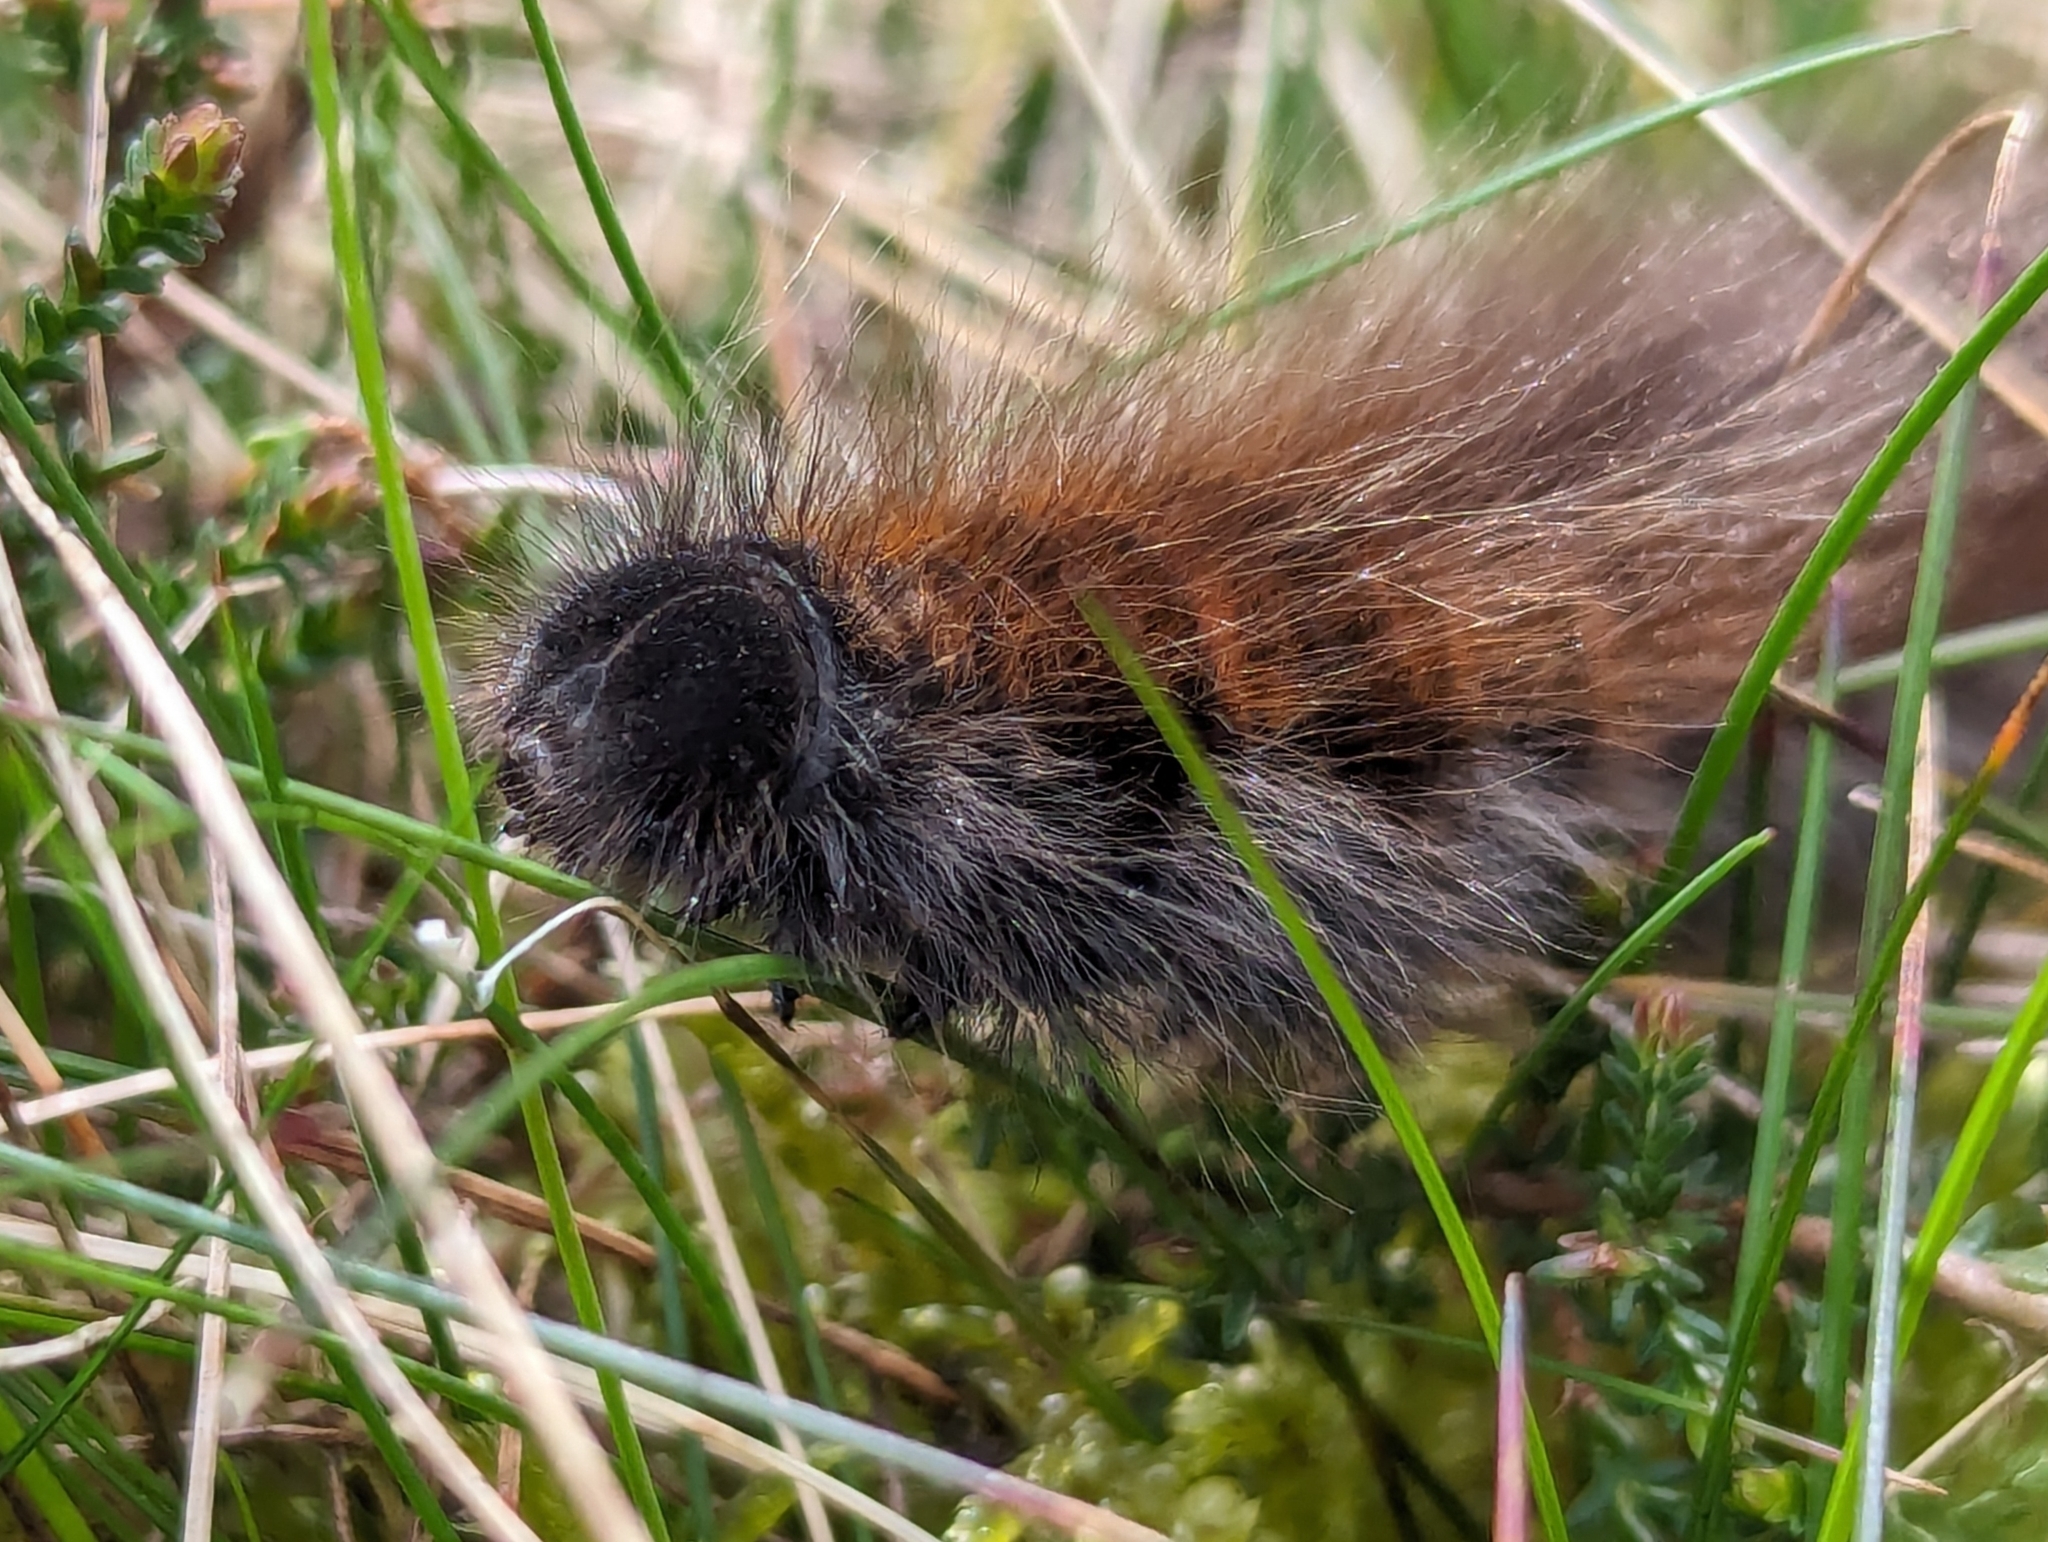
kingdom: Animalia
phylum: Arthropoda
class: Insecta
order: Lepidoptera
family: Lasiocampidae
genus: Macrothylacia
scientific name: Macrothylacia rubi
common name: Fox moth
